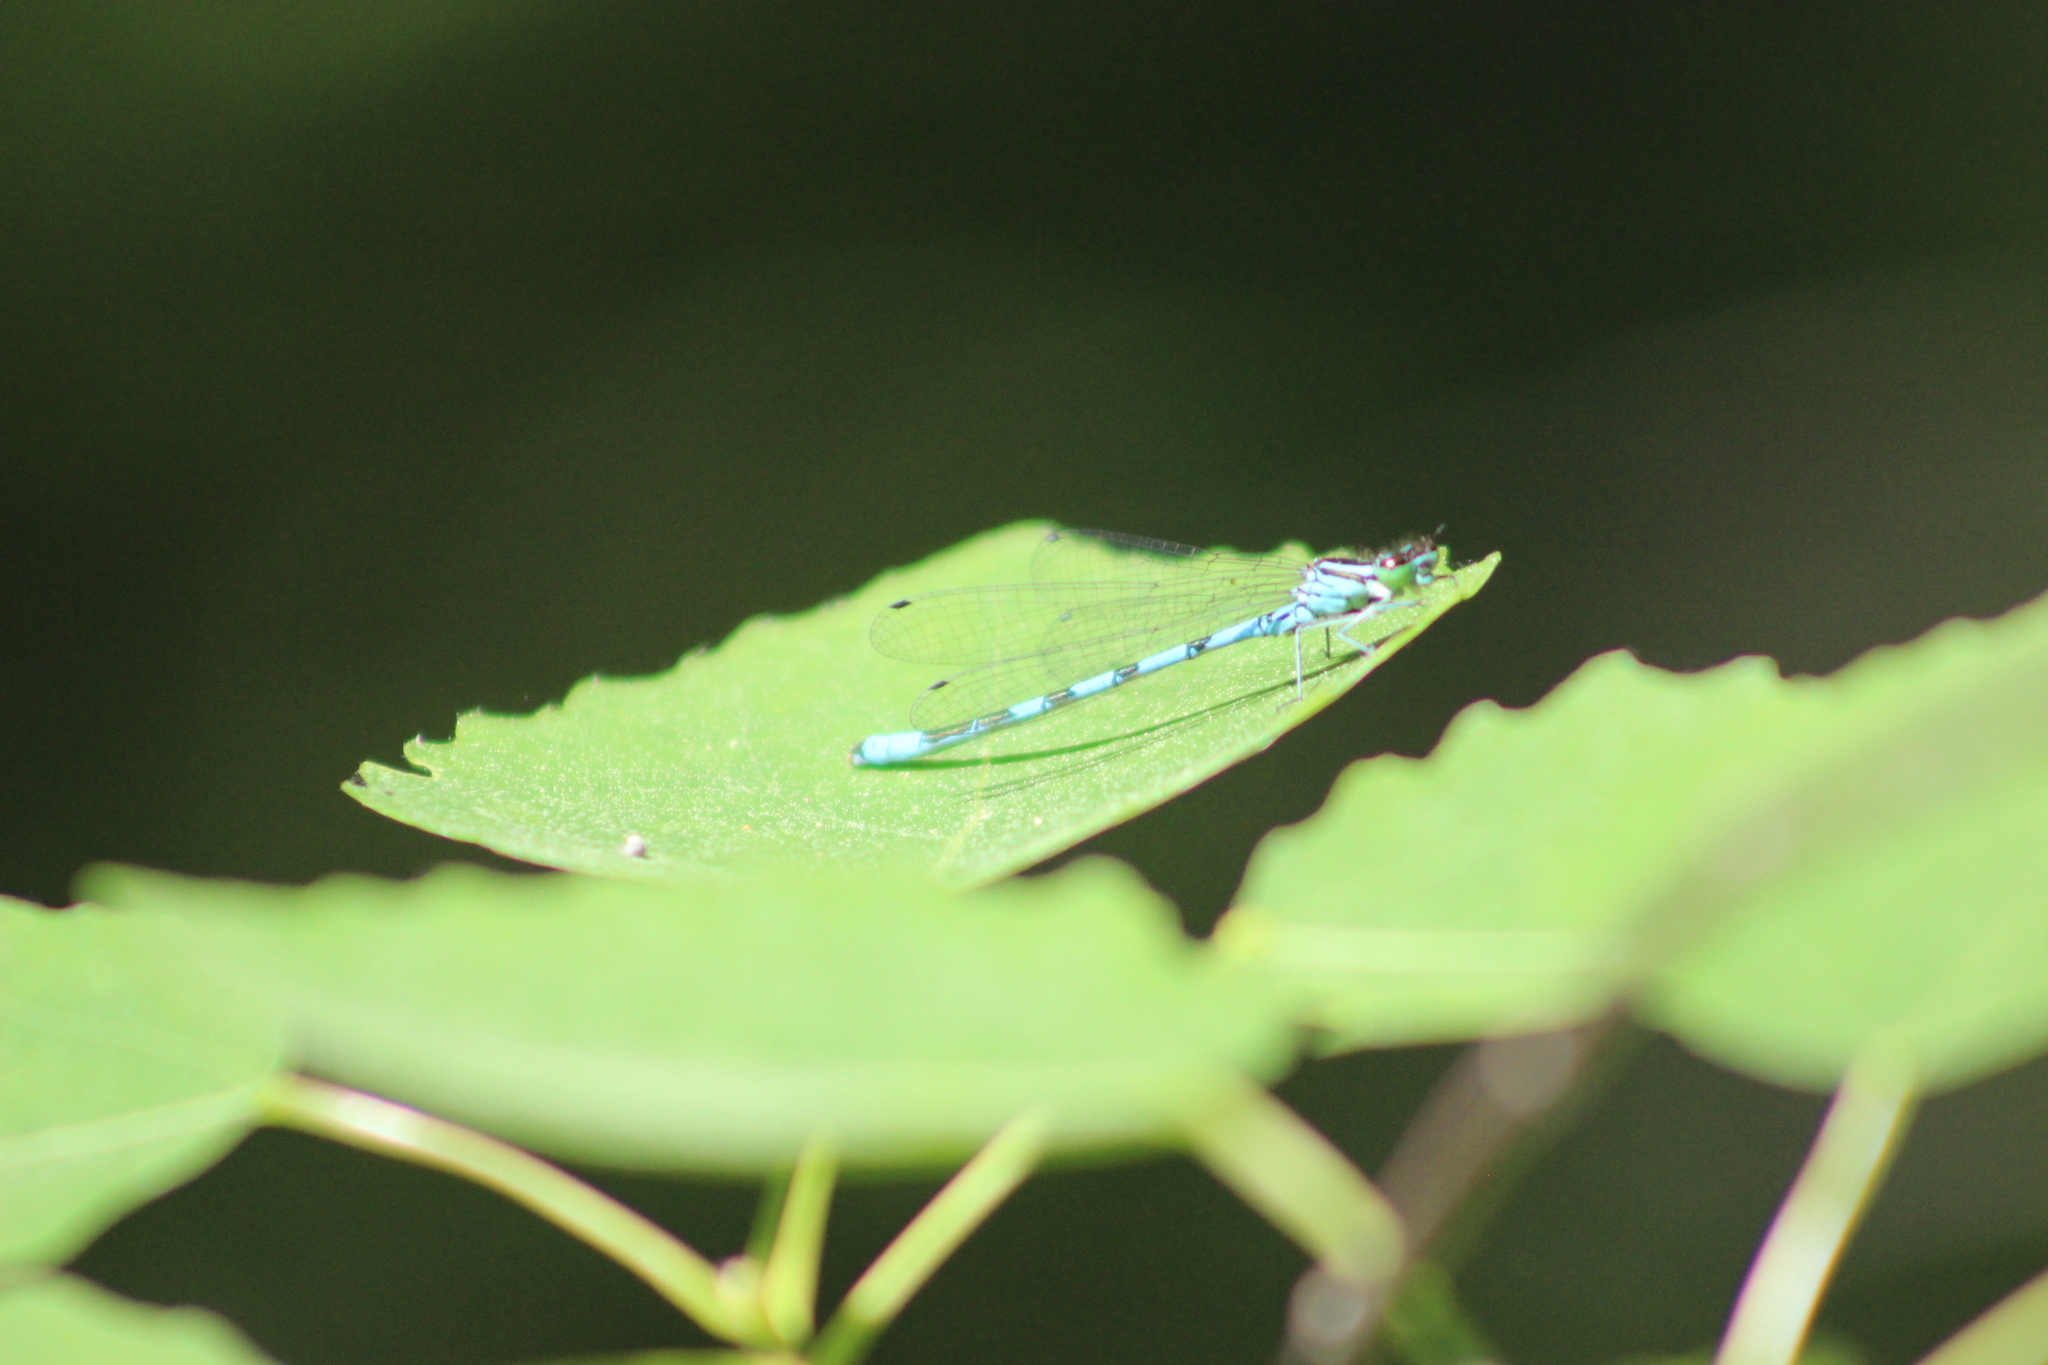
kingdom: Animalia
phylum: Arthropoda
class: Insecta
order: Odonata
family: Coenagrionidae
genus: Coenagrion
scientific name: Coenagrion hastulatum
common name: Spearhead bluet
